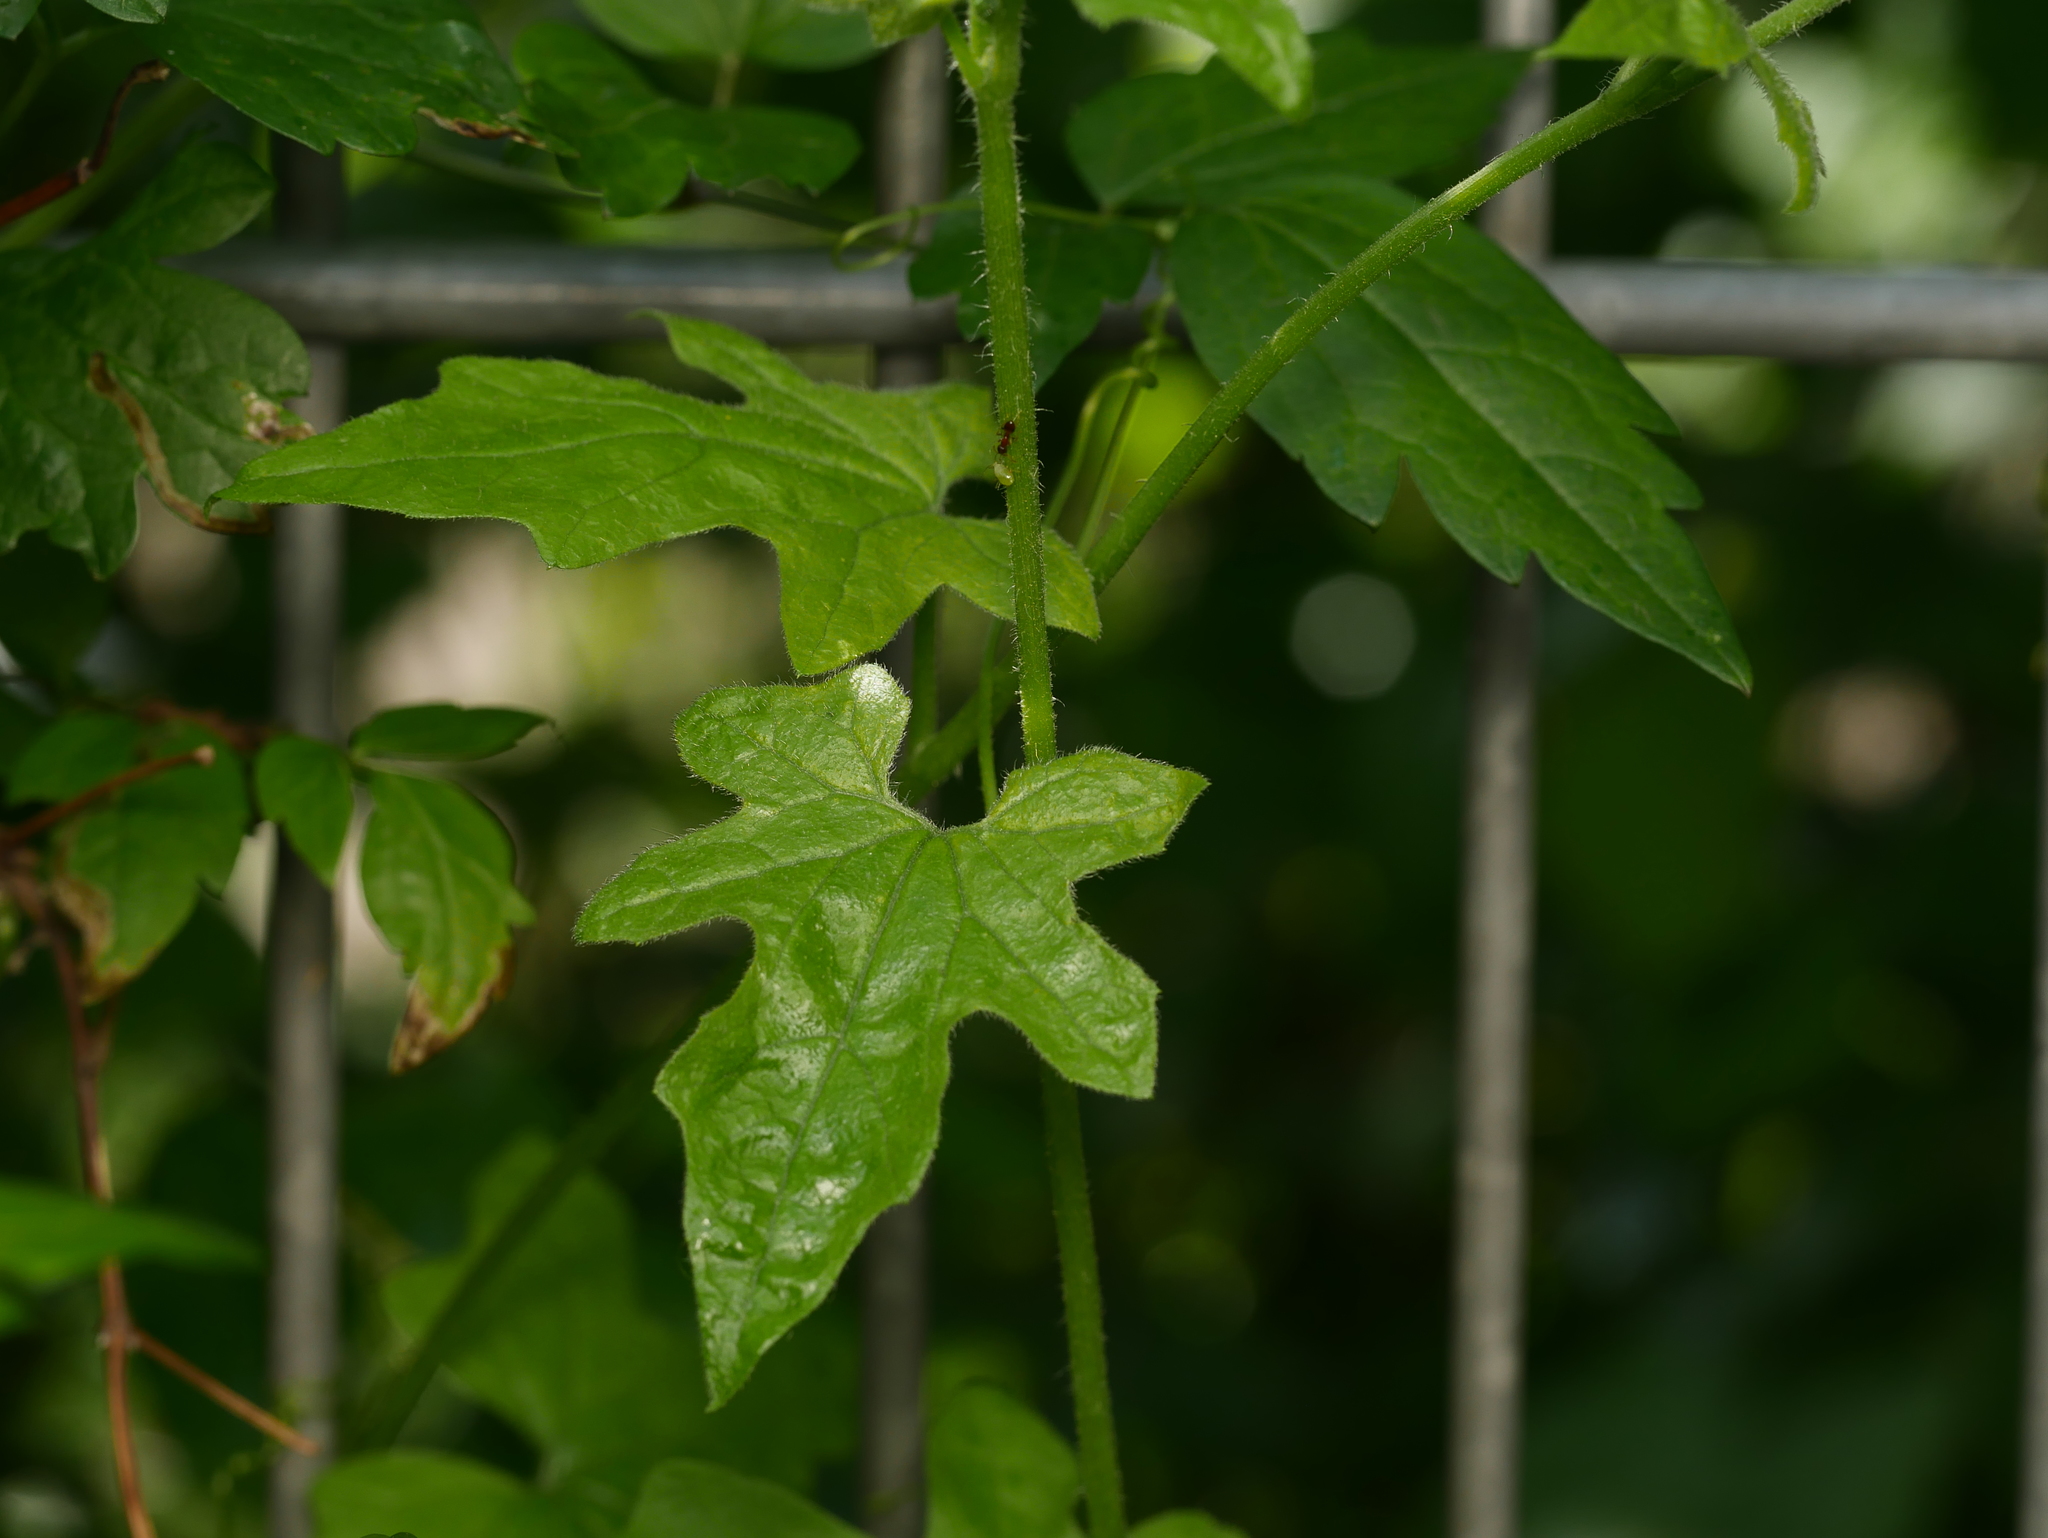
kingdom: Plantae
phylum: Tracheophyta
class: Magnoliopsida
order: Cucurbitales
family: Cucurbitaceae
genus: Bryonia
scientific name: Bryonia cretica
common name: Cretan bryony
